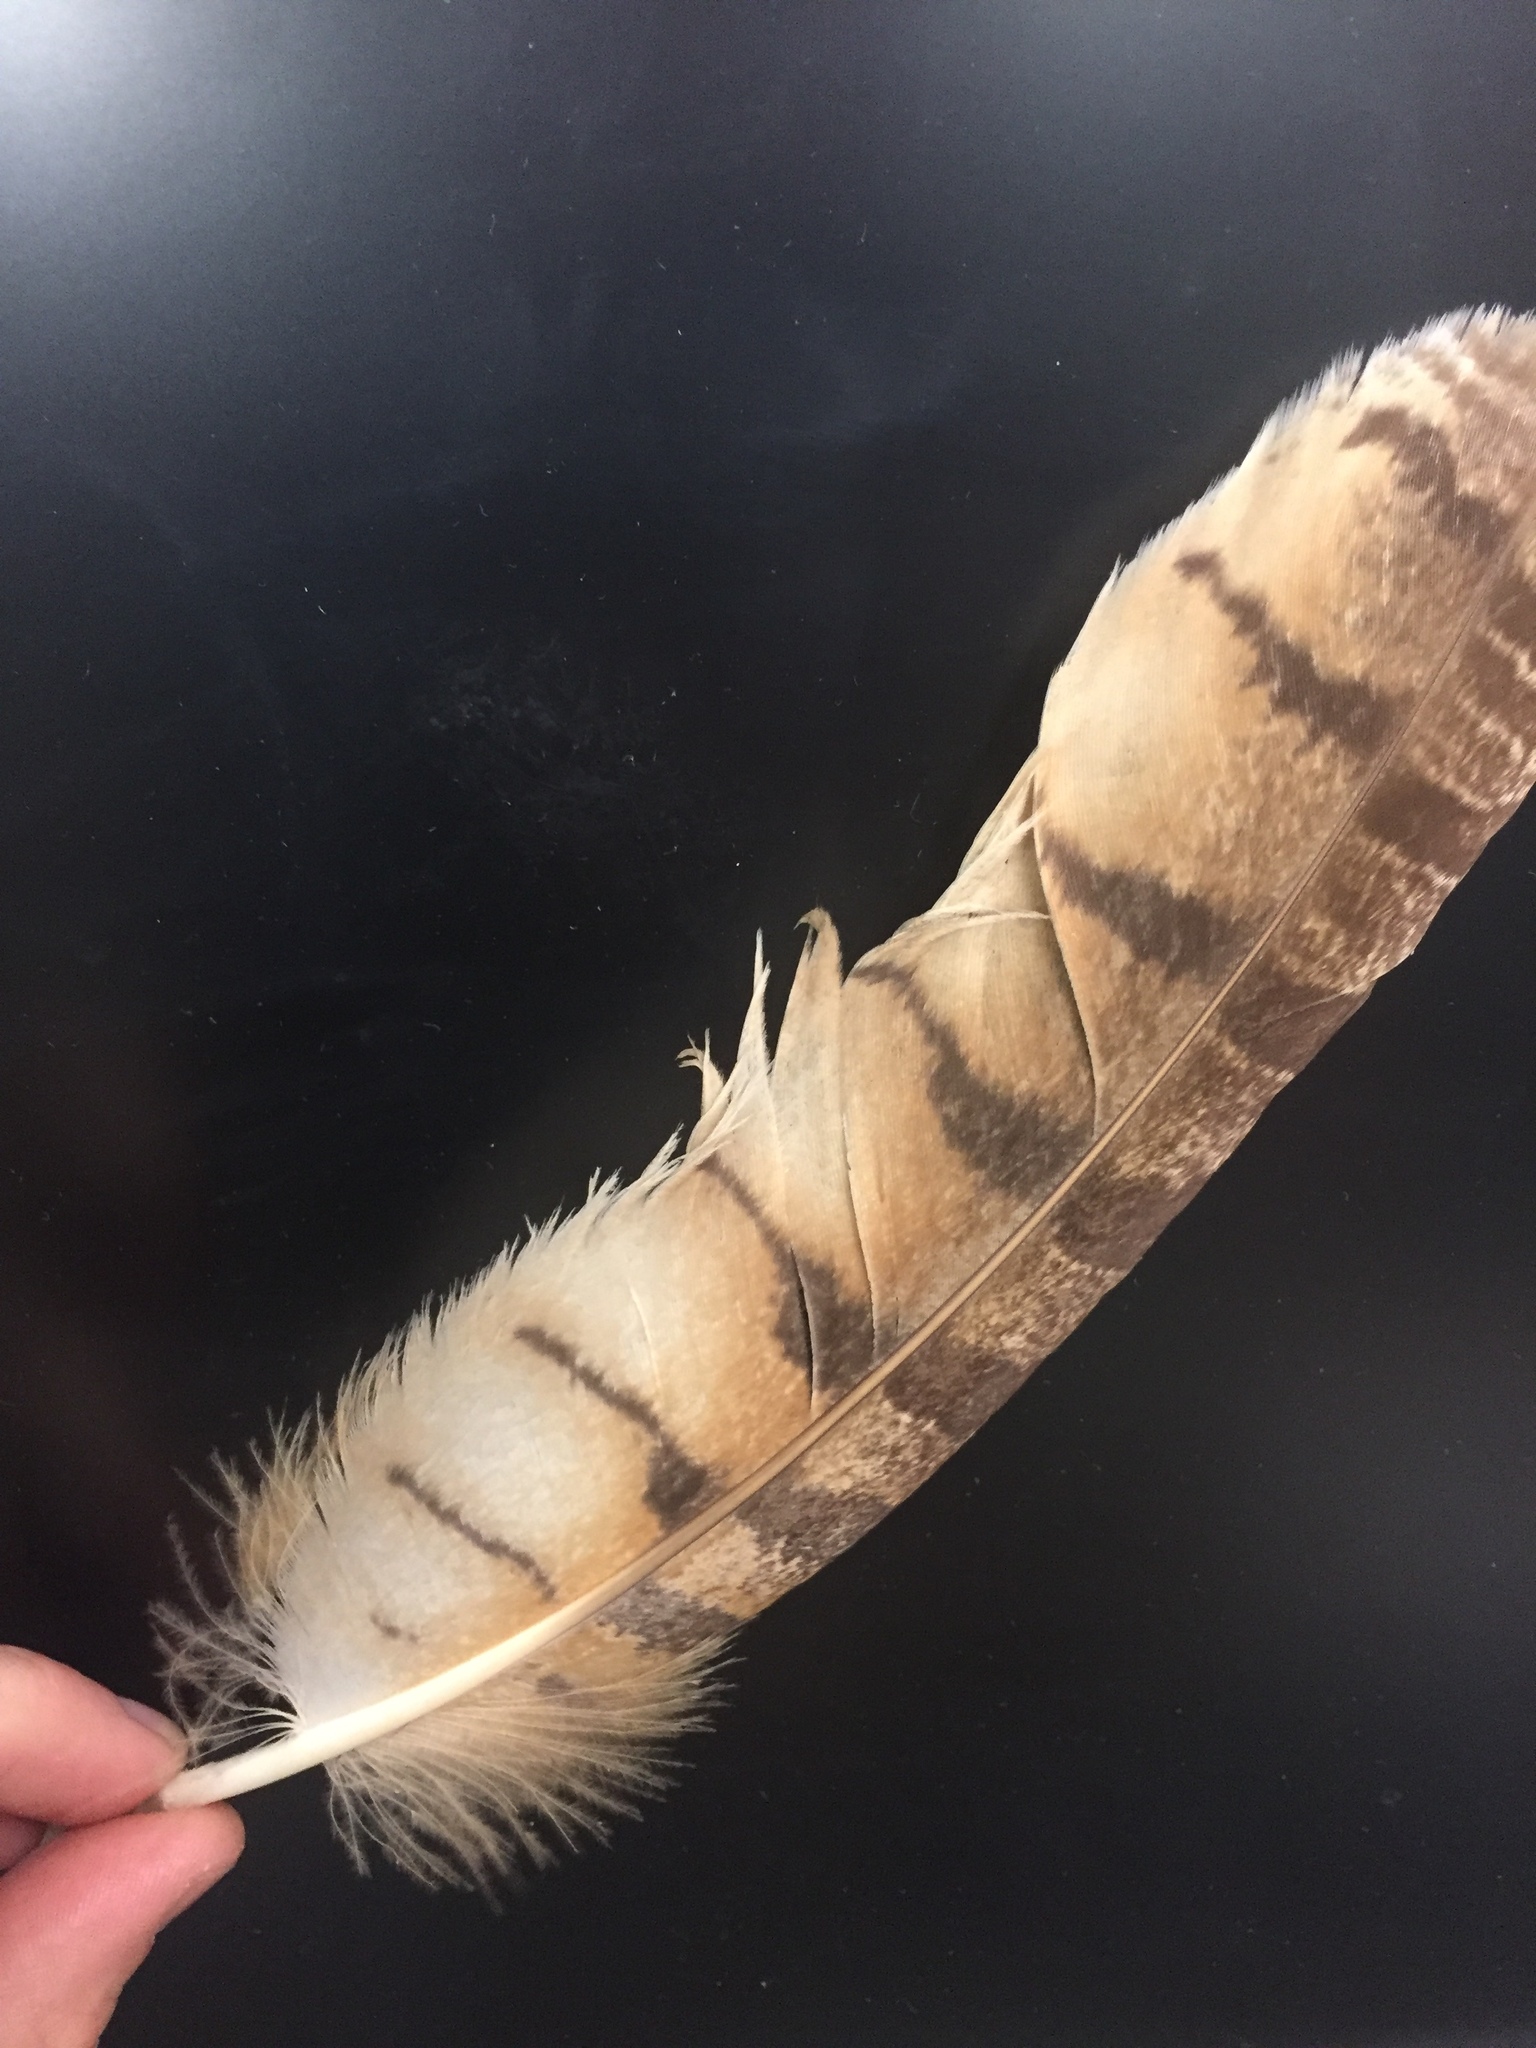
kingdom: Animalia
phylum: Chordata
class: Aves
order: Strigiformes
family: Strigidae
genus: Bubo
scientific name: Bubo virginianus
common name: Great horned owl
